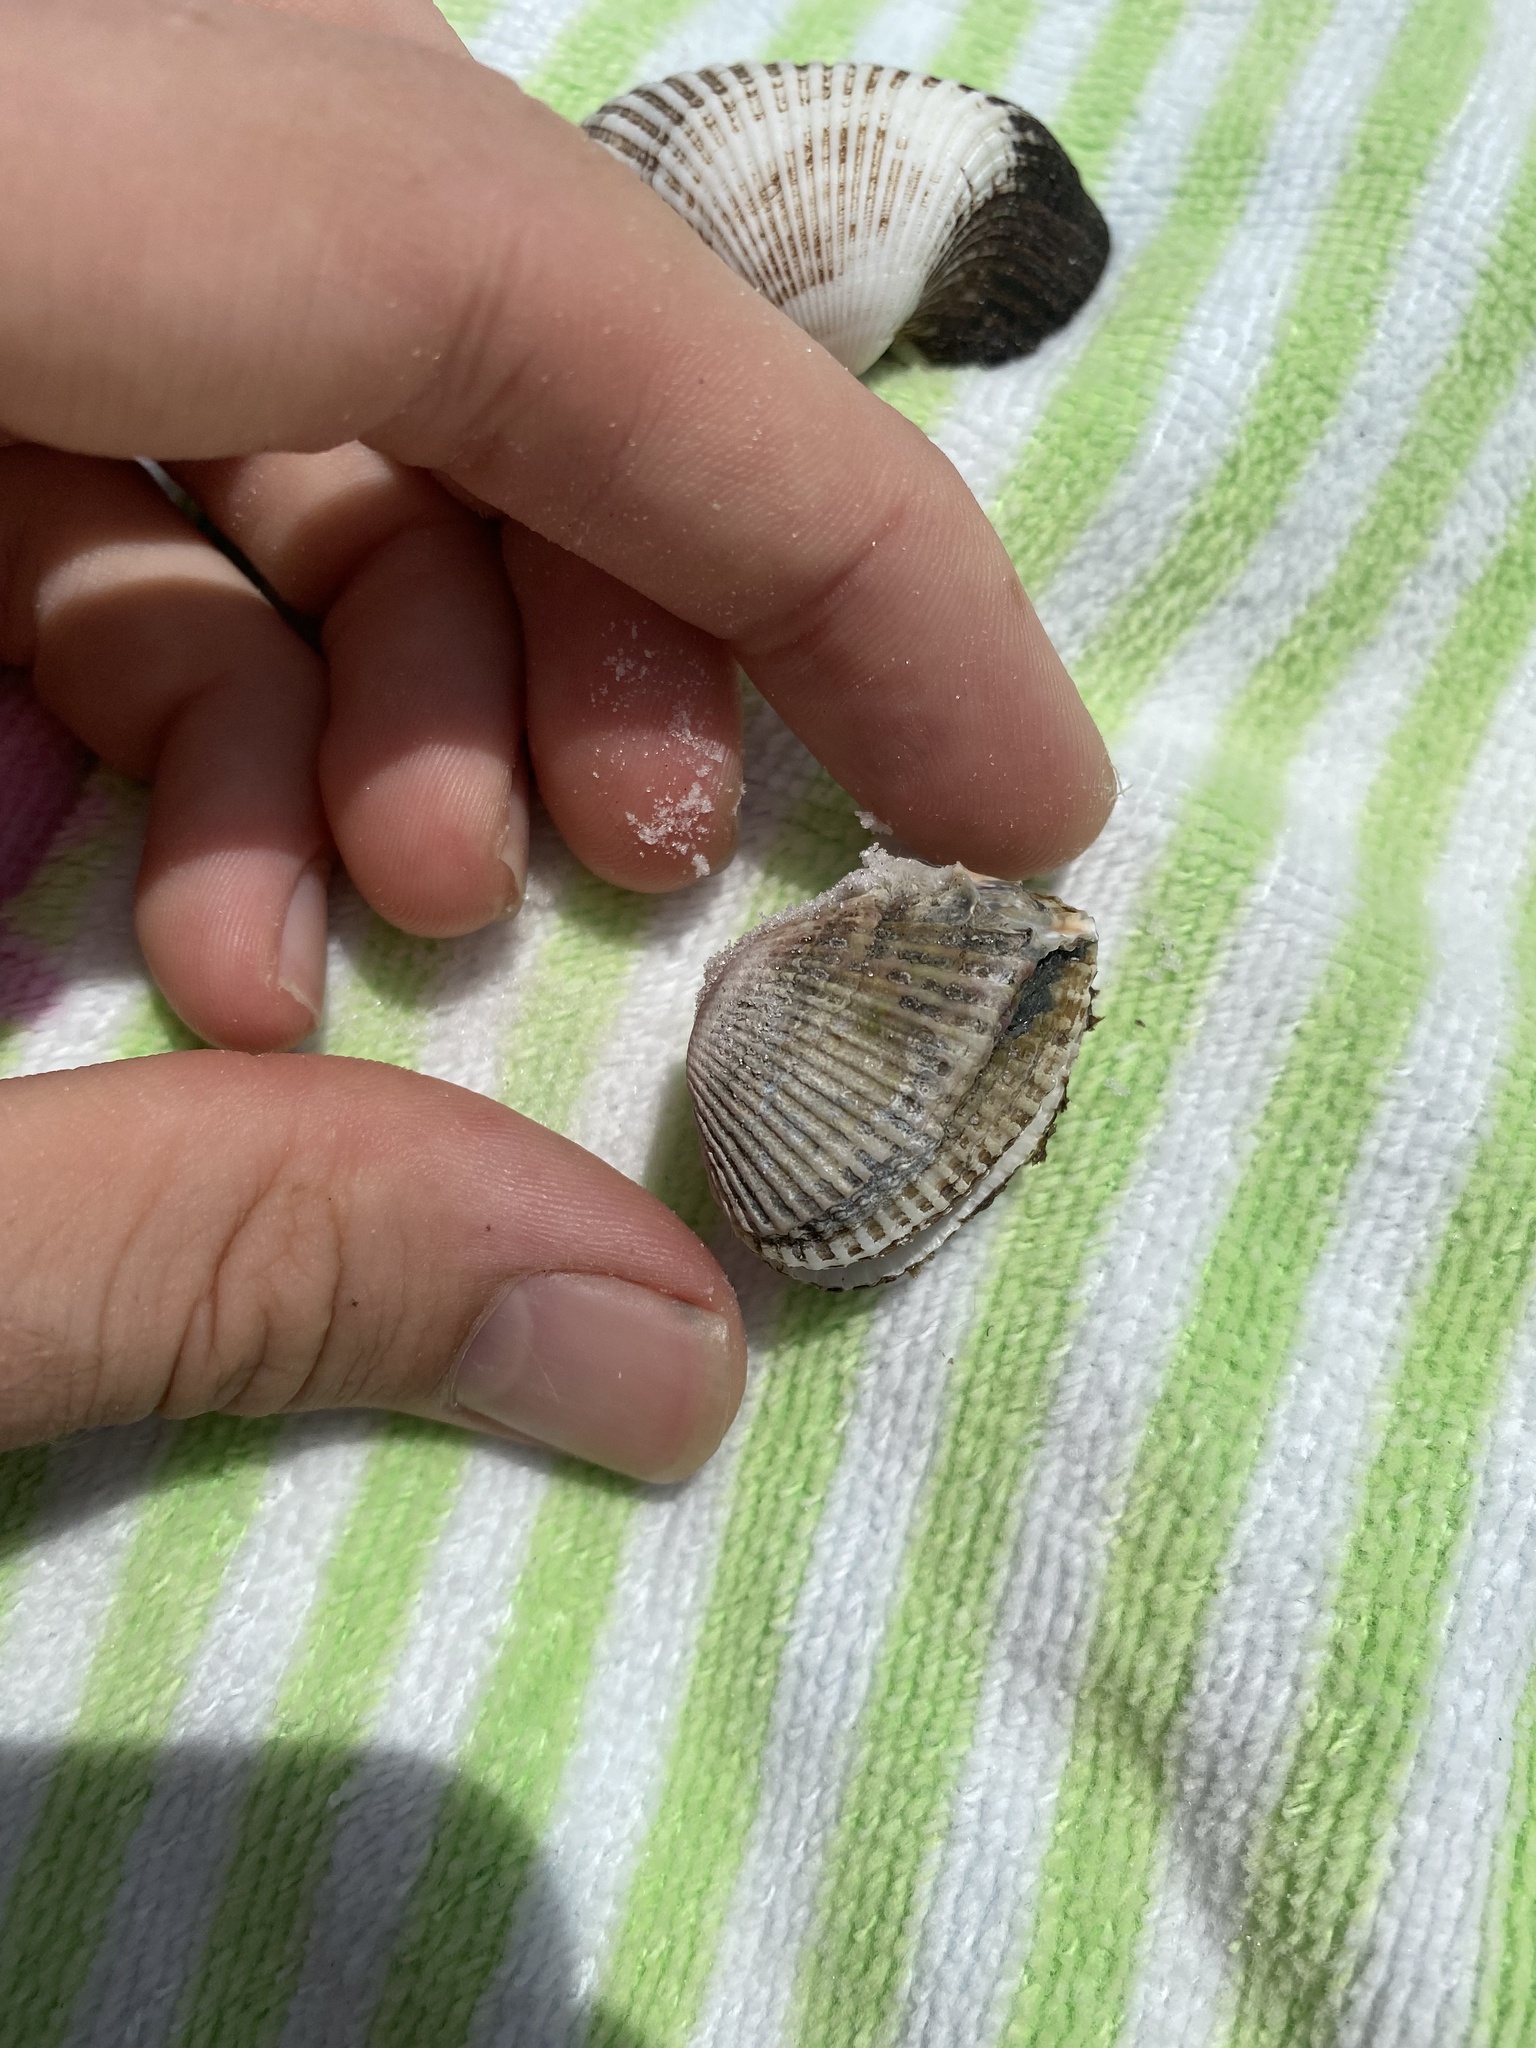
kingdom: Animalia
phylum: Mollusca
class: Bivalvia
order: Arcida
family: Arcidae
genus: Anadara
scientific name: Anadara transversa
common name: Transverse ark
